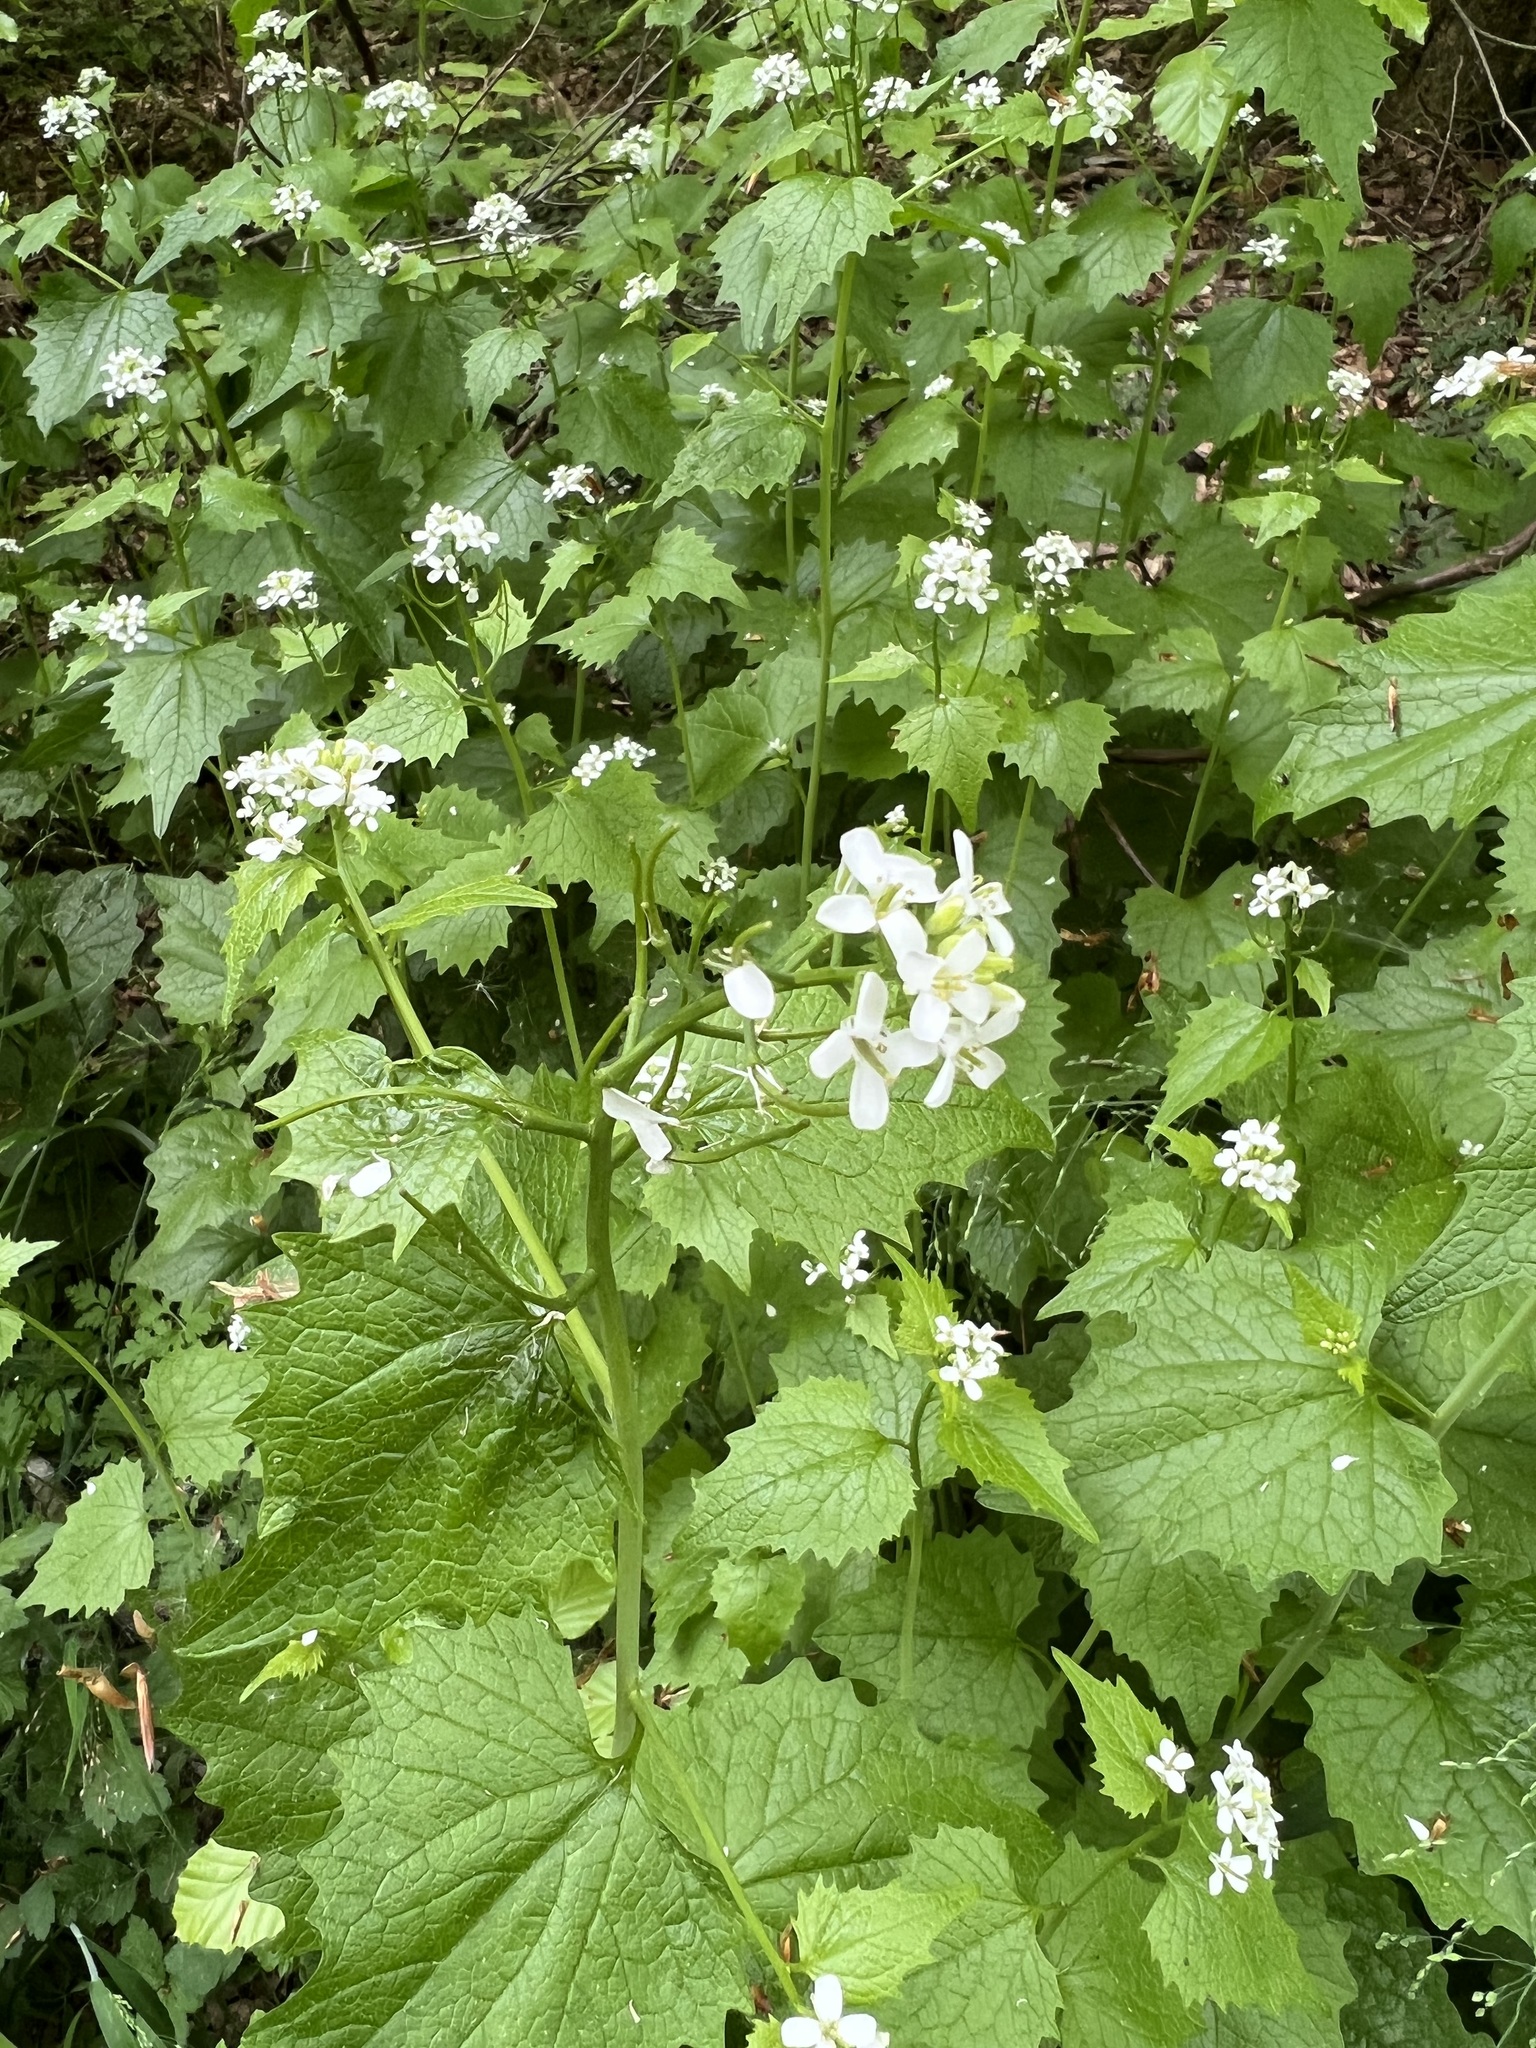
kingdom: Plantae
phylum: Tracheophyta
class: Magnoliopsida
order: Brassicales
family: Brassicaceae
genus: Alliaria
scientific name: Alliaria petiolata
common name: Garlic mustard
